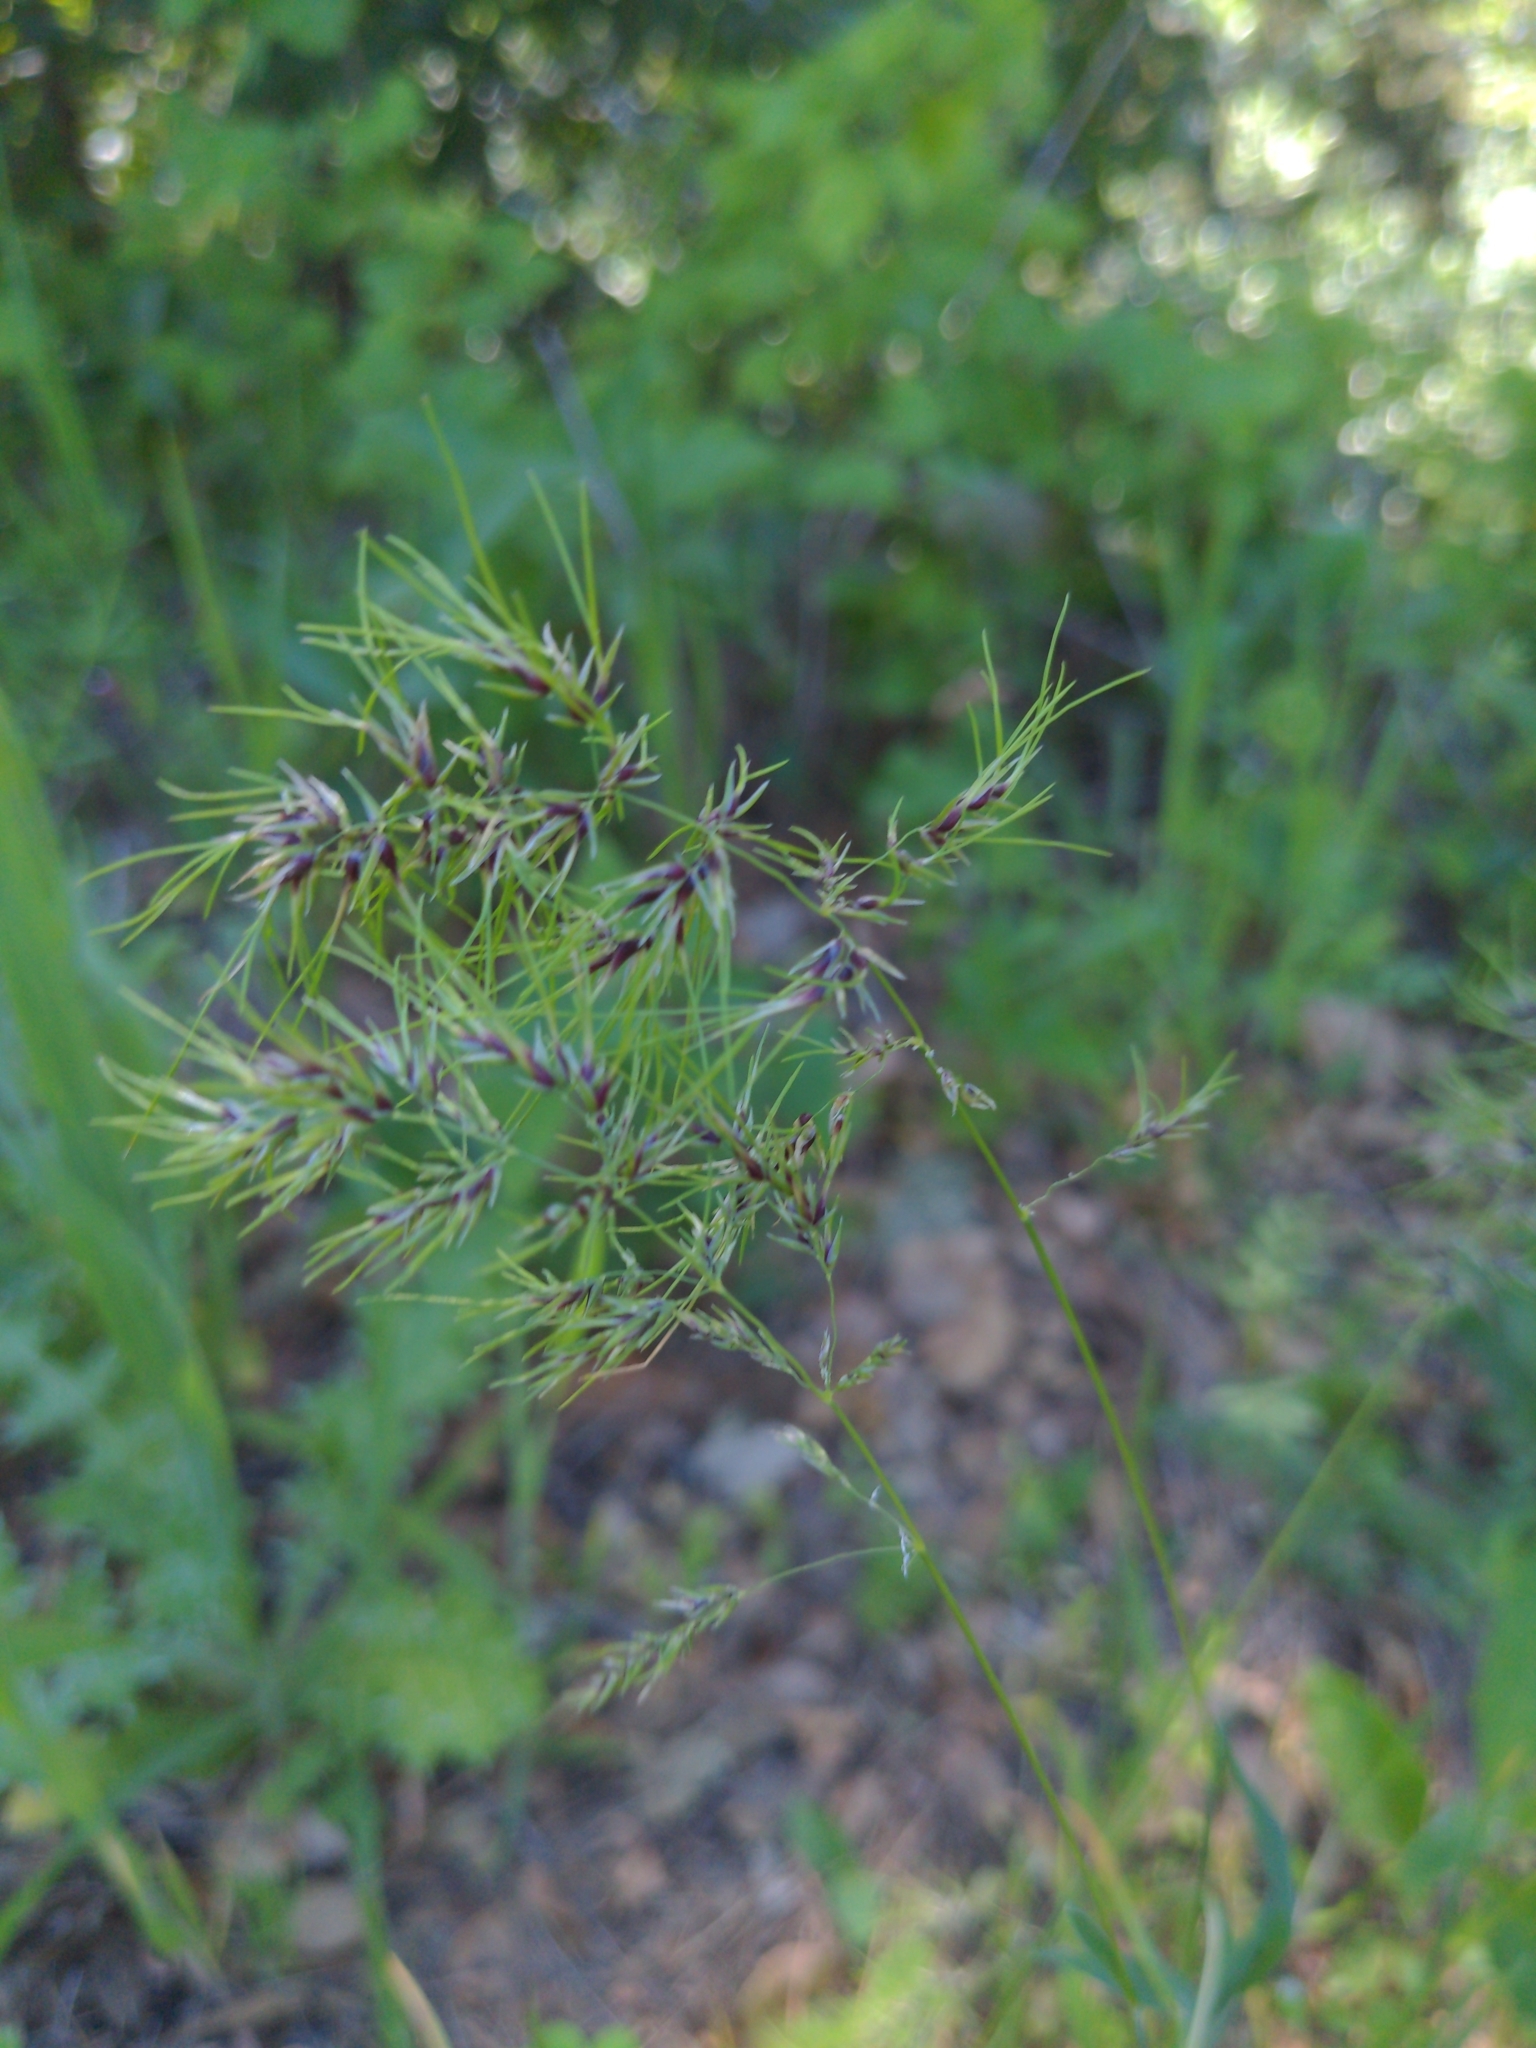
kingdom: Plantae
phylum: Tracheophyta
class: Liliopsida
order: Poales
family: Poaceae
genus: Poa
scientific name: Poa bulbosa
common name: Bulbous bluegrass
